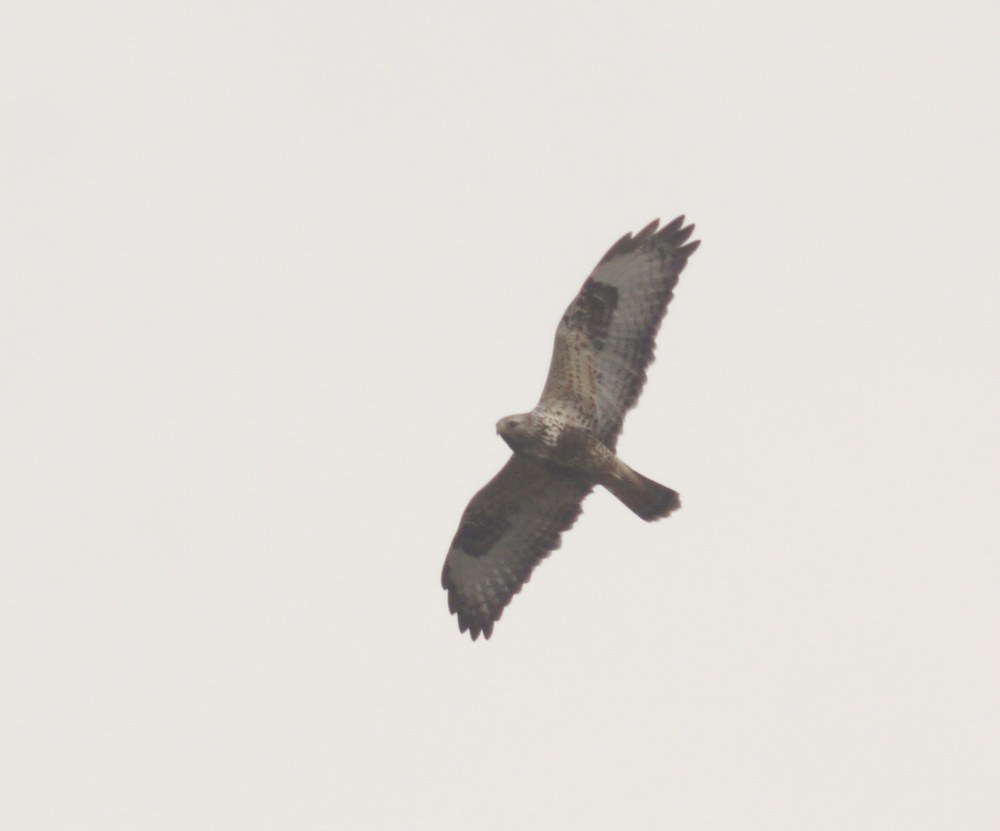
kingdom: Animalia
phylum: Chordata
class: Aves
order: Accipitriformes
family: Accipitridae
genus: Buteo
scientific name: Buteo lagopus
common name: Rough-legged buzzard
